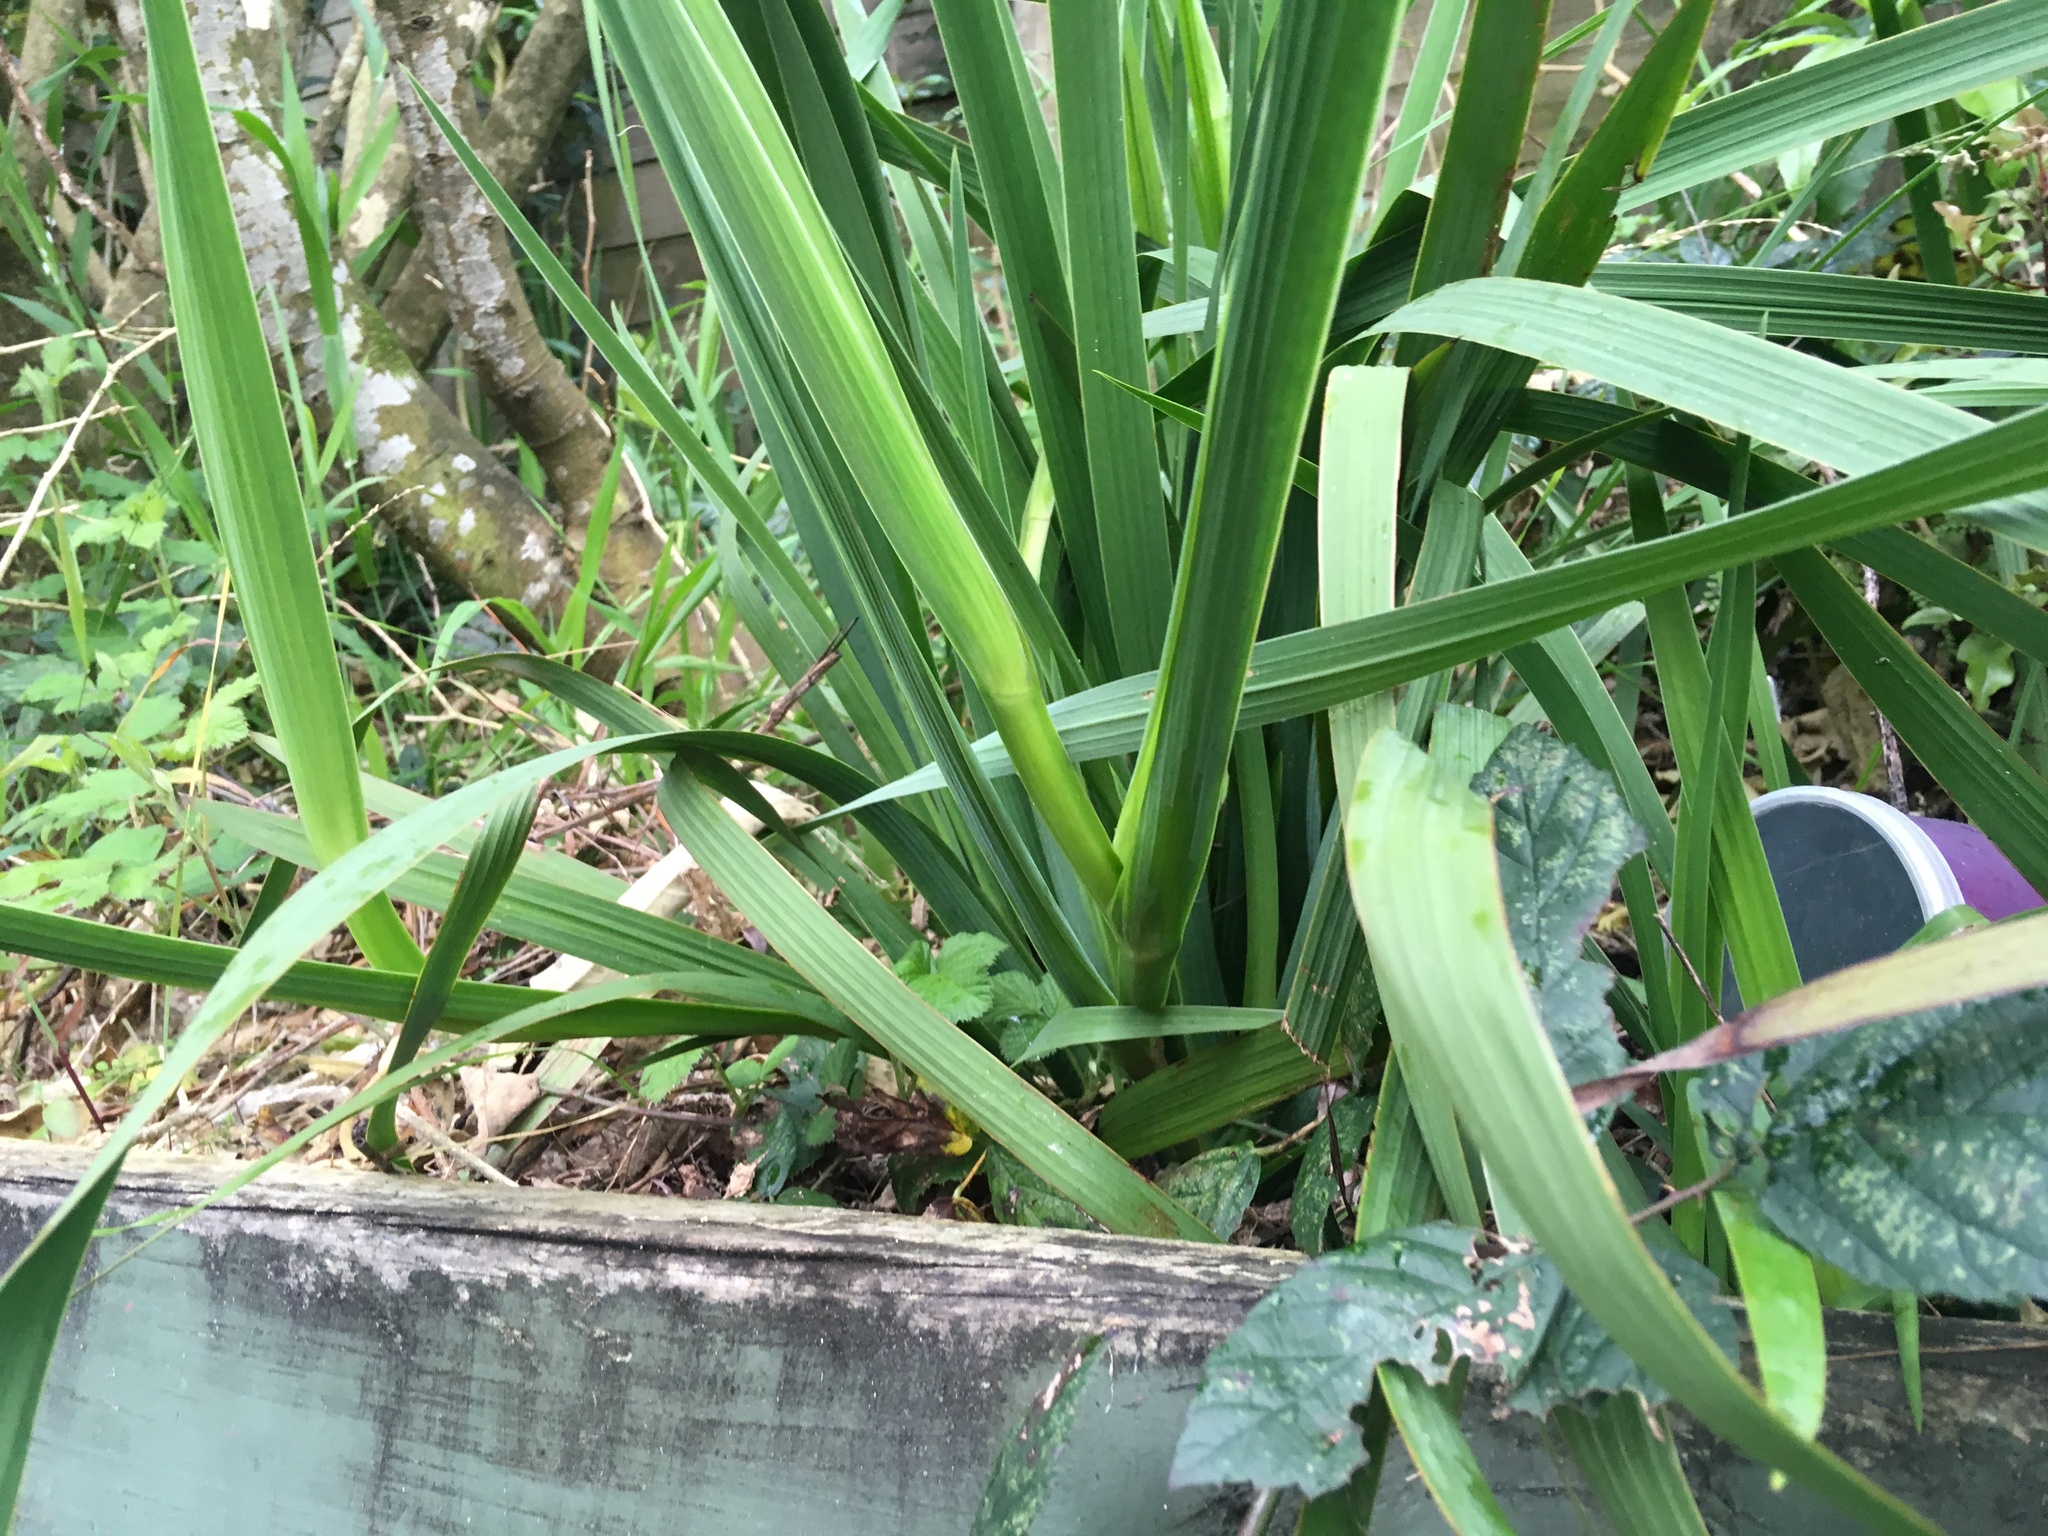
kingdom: Plantae
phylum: Tracheophyta
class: Liliopsida
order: Asparagales
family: Iridaceae
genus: Aristea
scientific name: Aristea ecklonii
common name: Blue corn-lily
